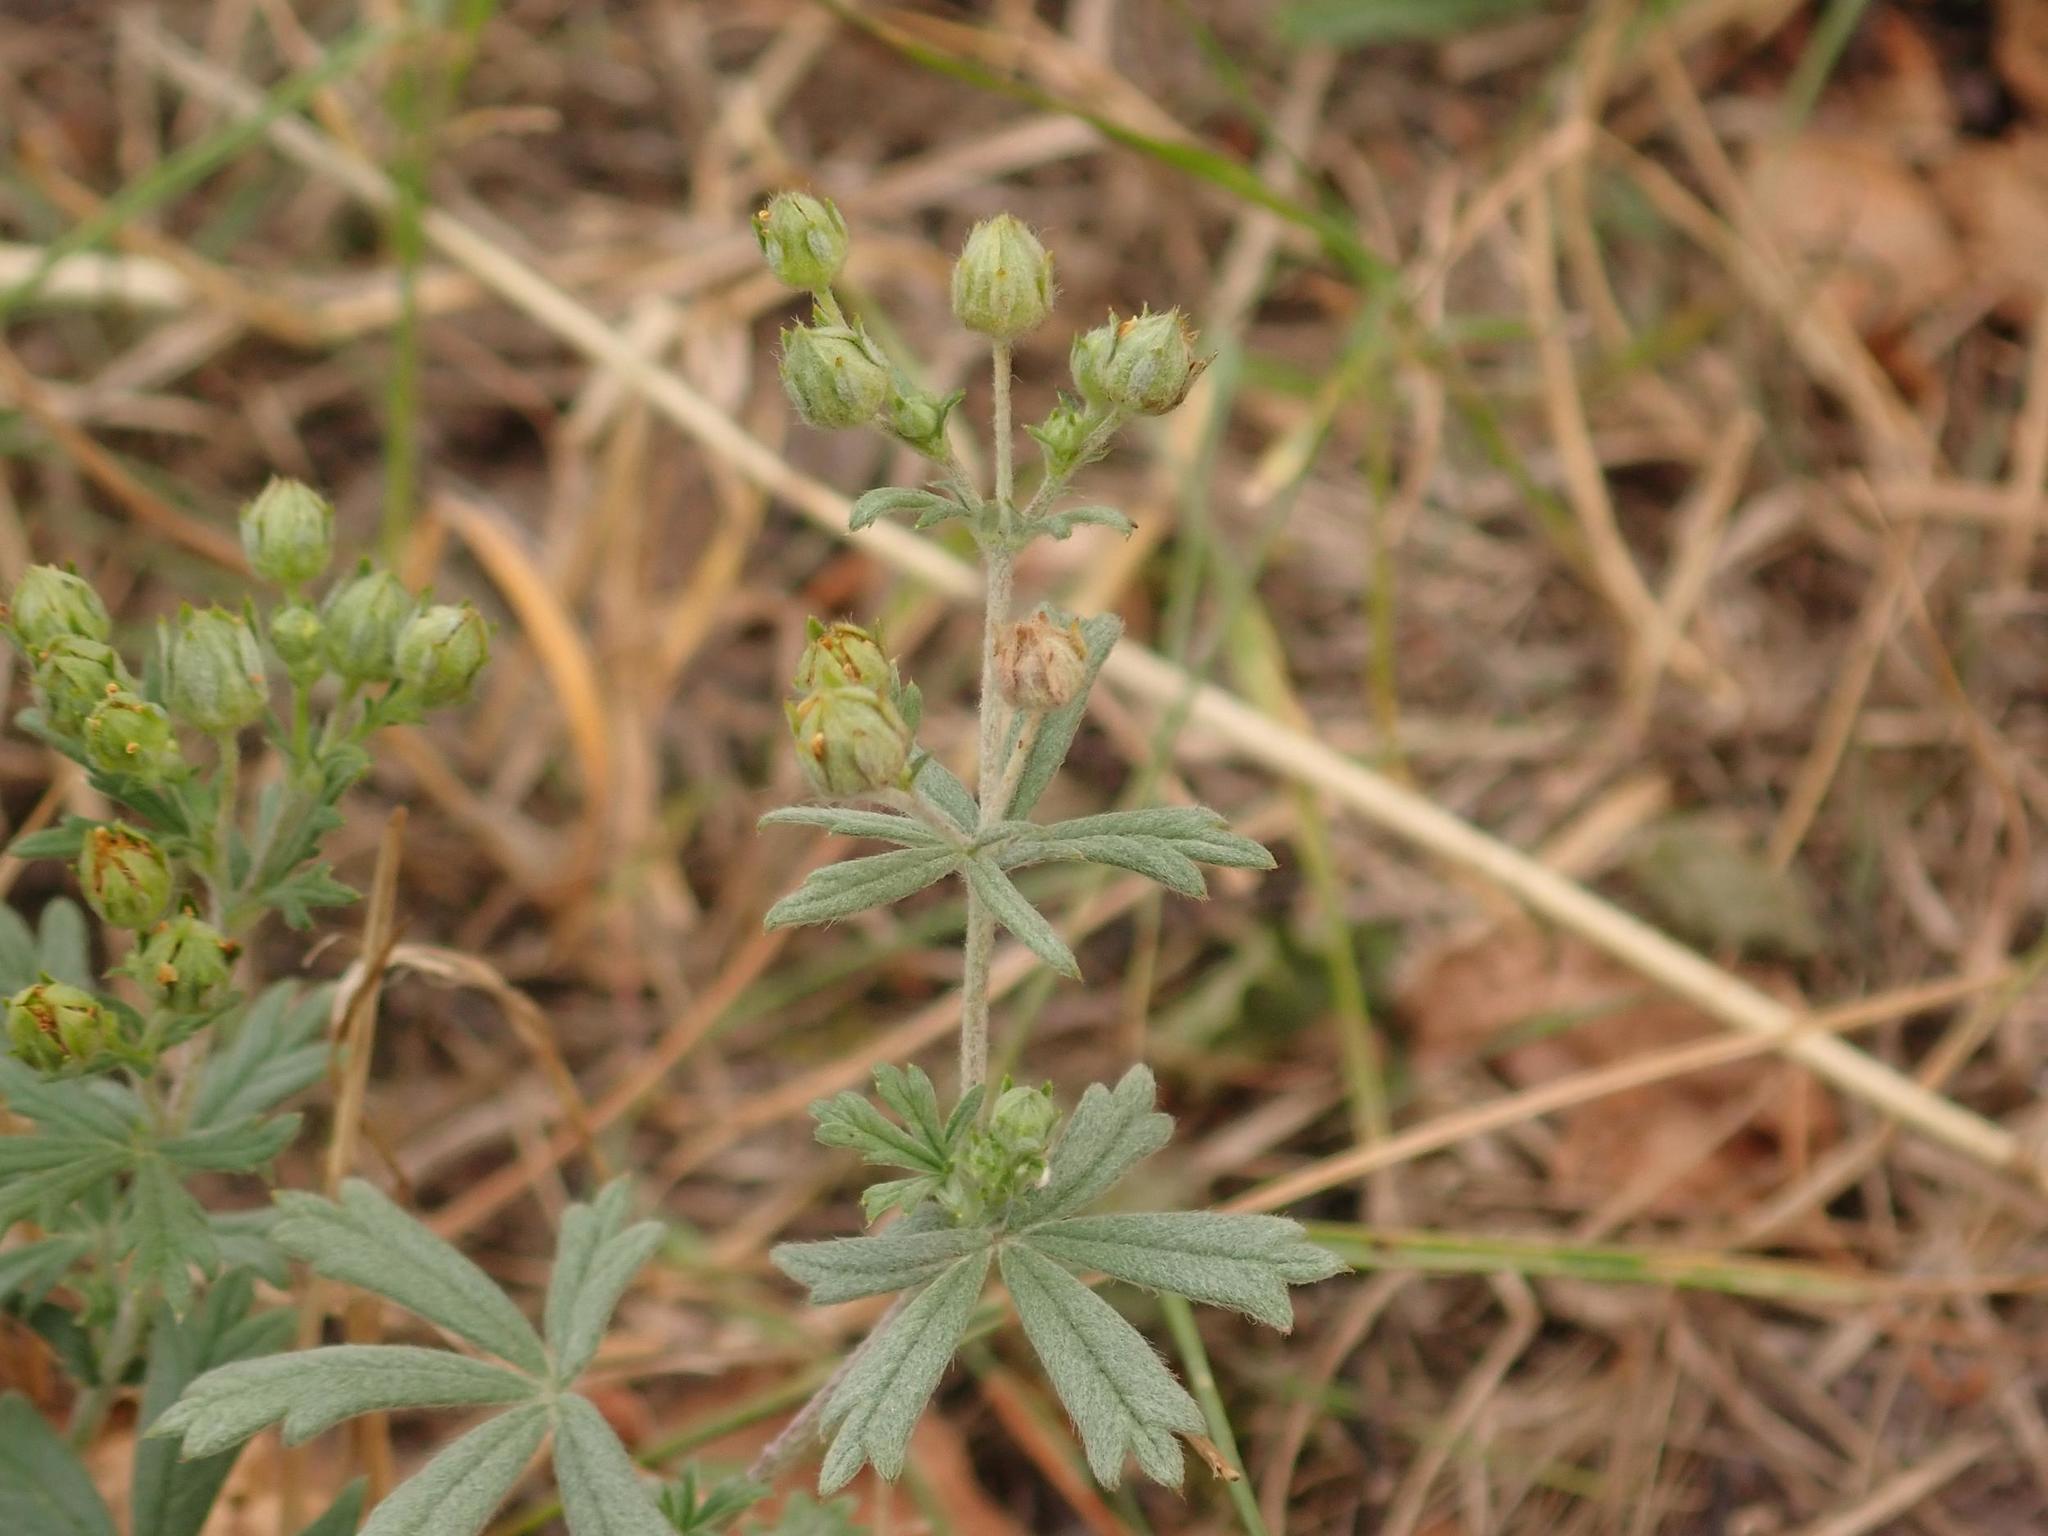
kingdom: Plantae
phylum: Tracheophyta
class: Magnoliopsida
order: Rosales
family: Rosaceae
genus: Potentilla
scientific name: Potentilla argentea
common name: Hoary cinquefoil
